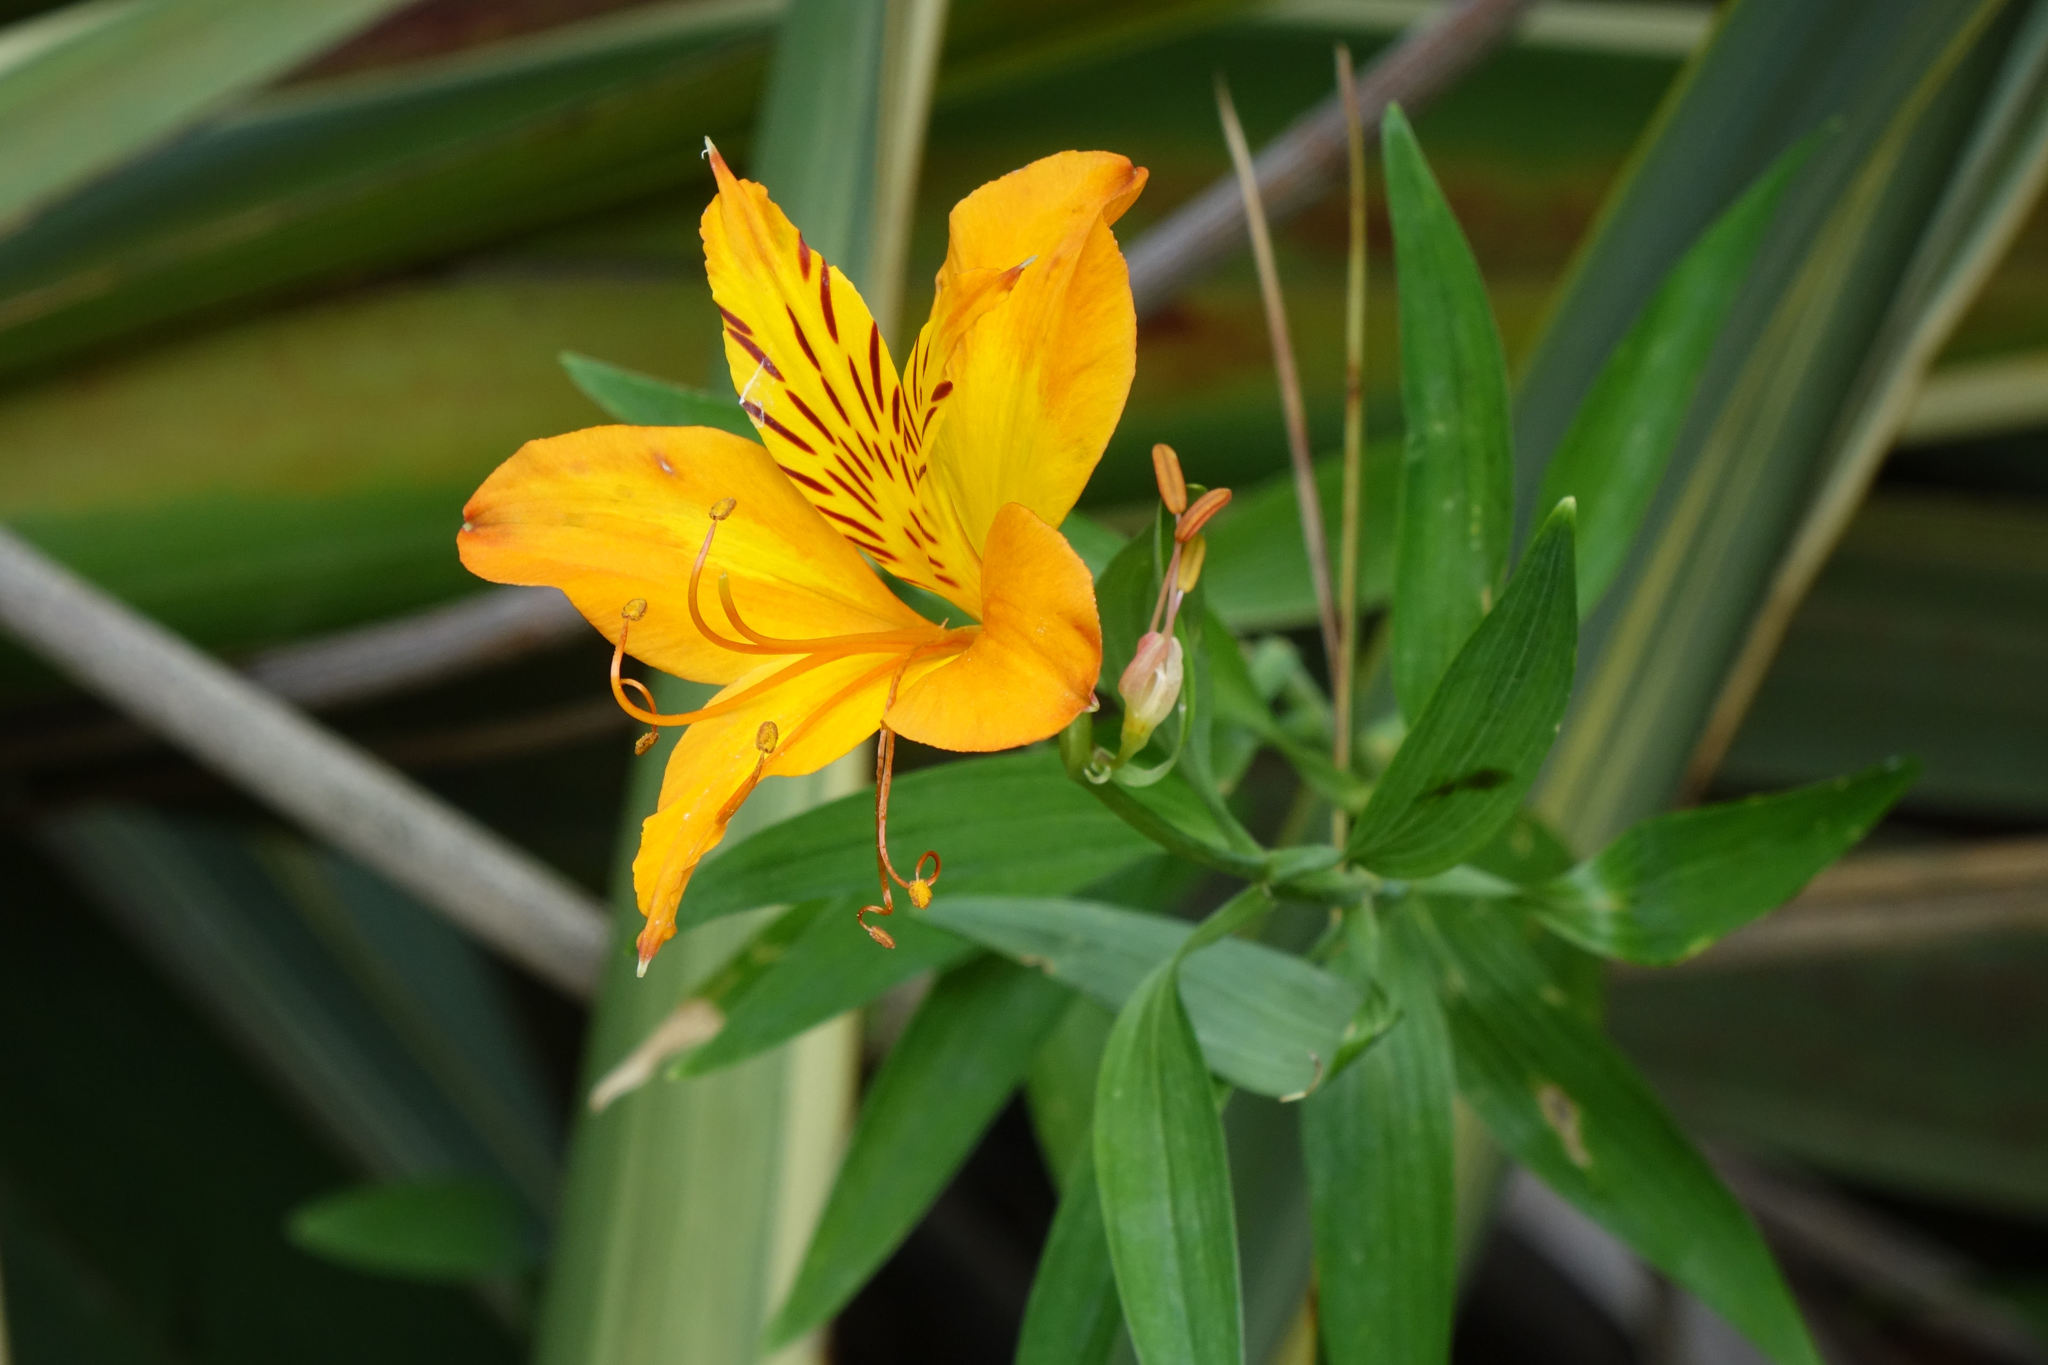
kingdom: Plantae
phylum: Tracheophyta
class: Liliopsida
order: Liliales
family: Alstroemeriaceae
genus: Alstroemeria
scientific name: Alstroemeria aurea
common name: Peruvian lily
